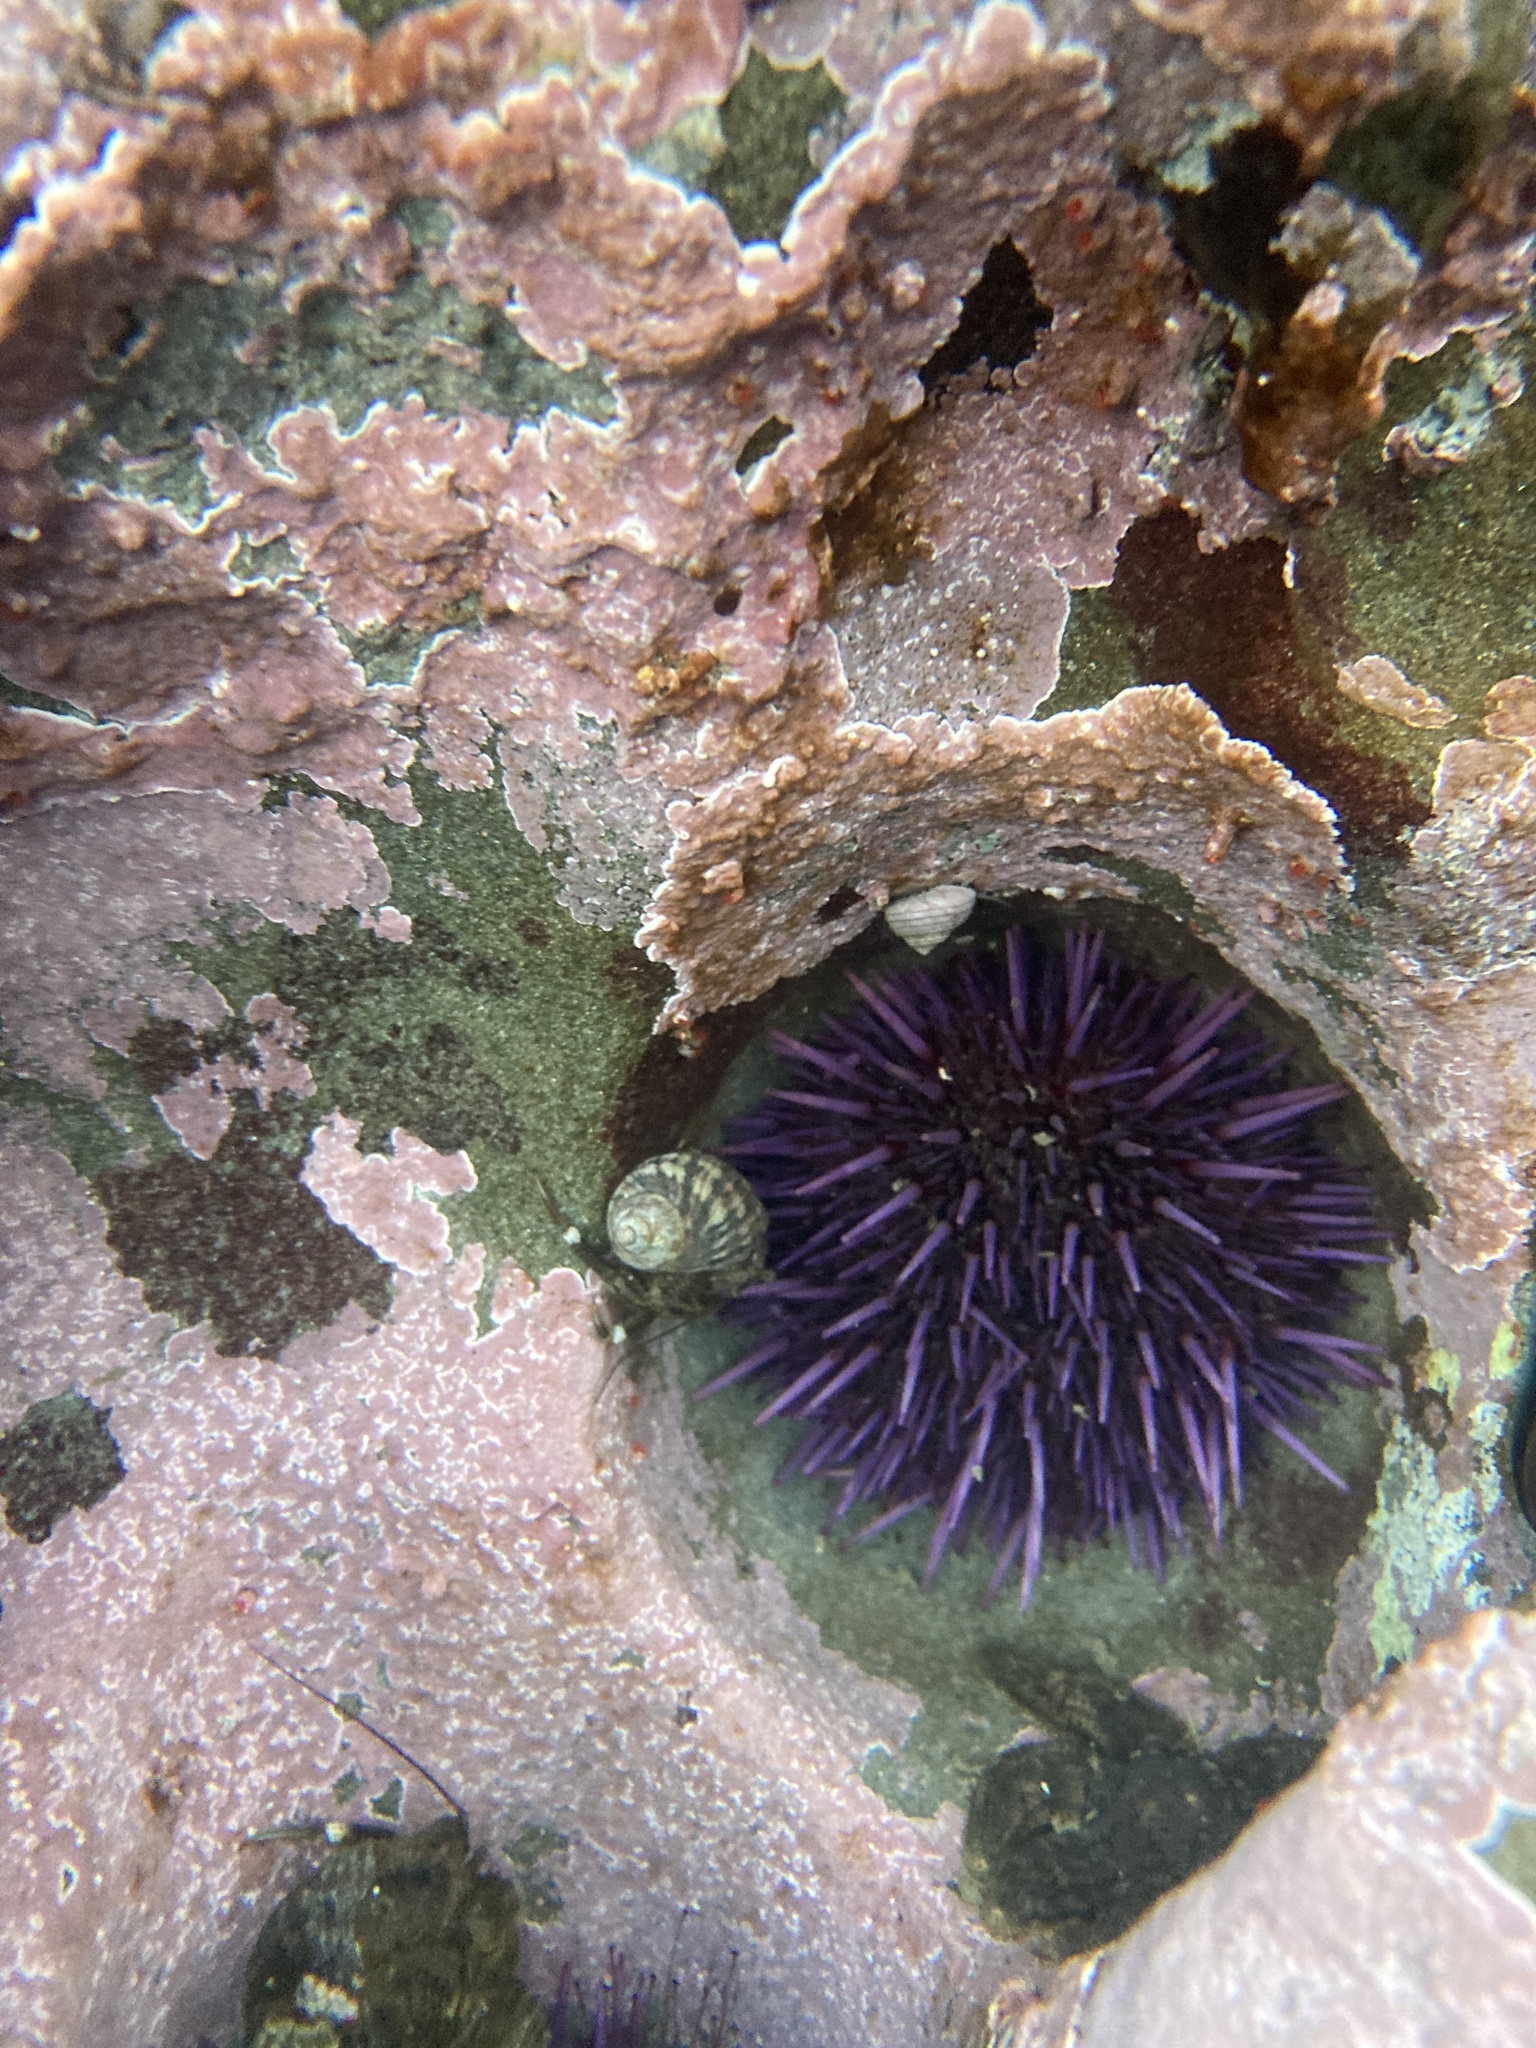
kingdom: Animalia
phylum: Echinodermata
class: Echinoidea
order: Camarodonta
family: Strongylocentrotidae
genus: Strongylocentrotus
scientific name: Strongylocentrotus purpuratus
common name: Purple sea urchin
